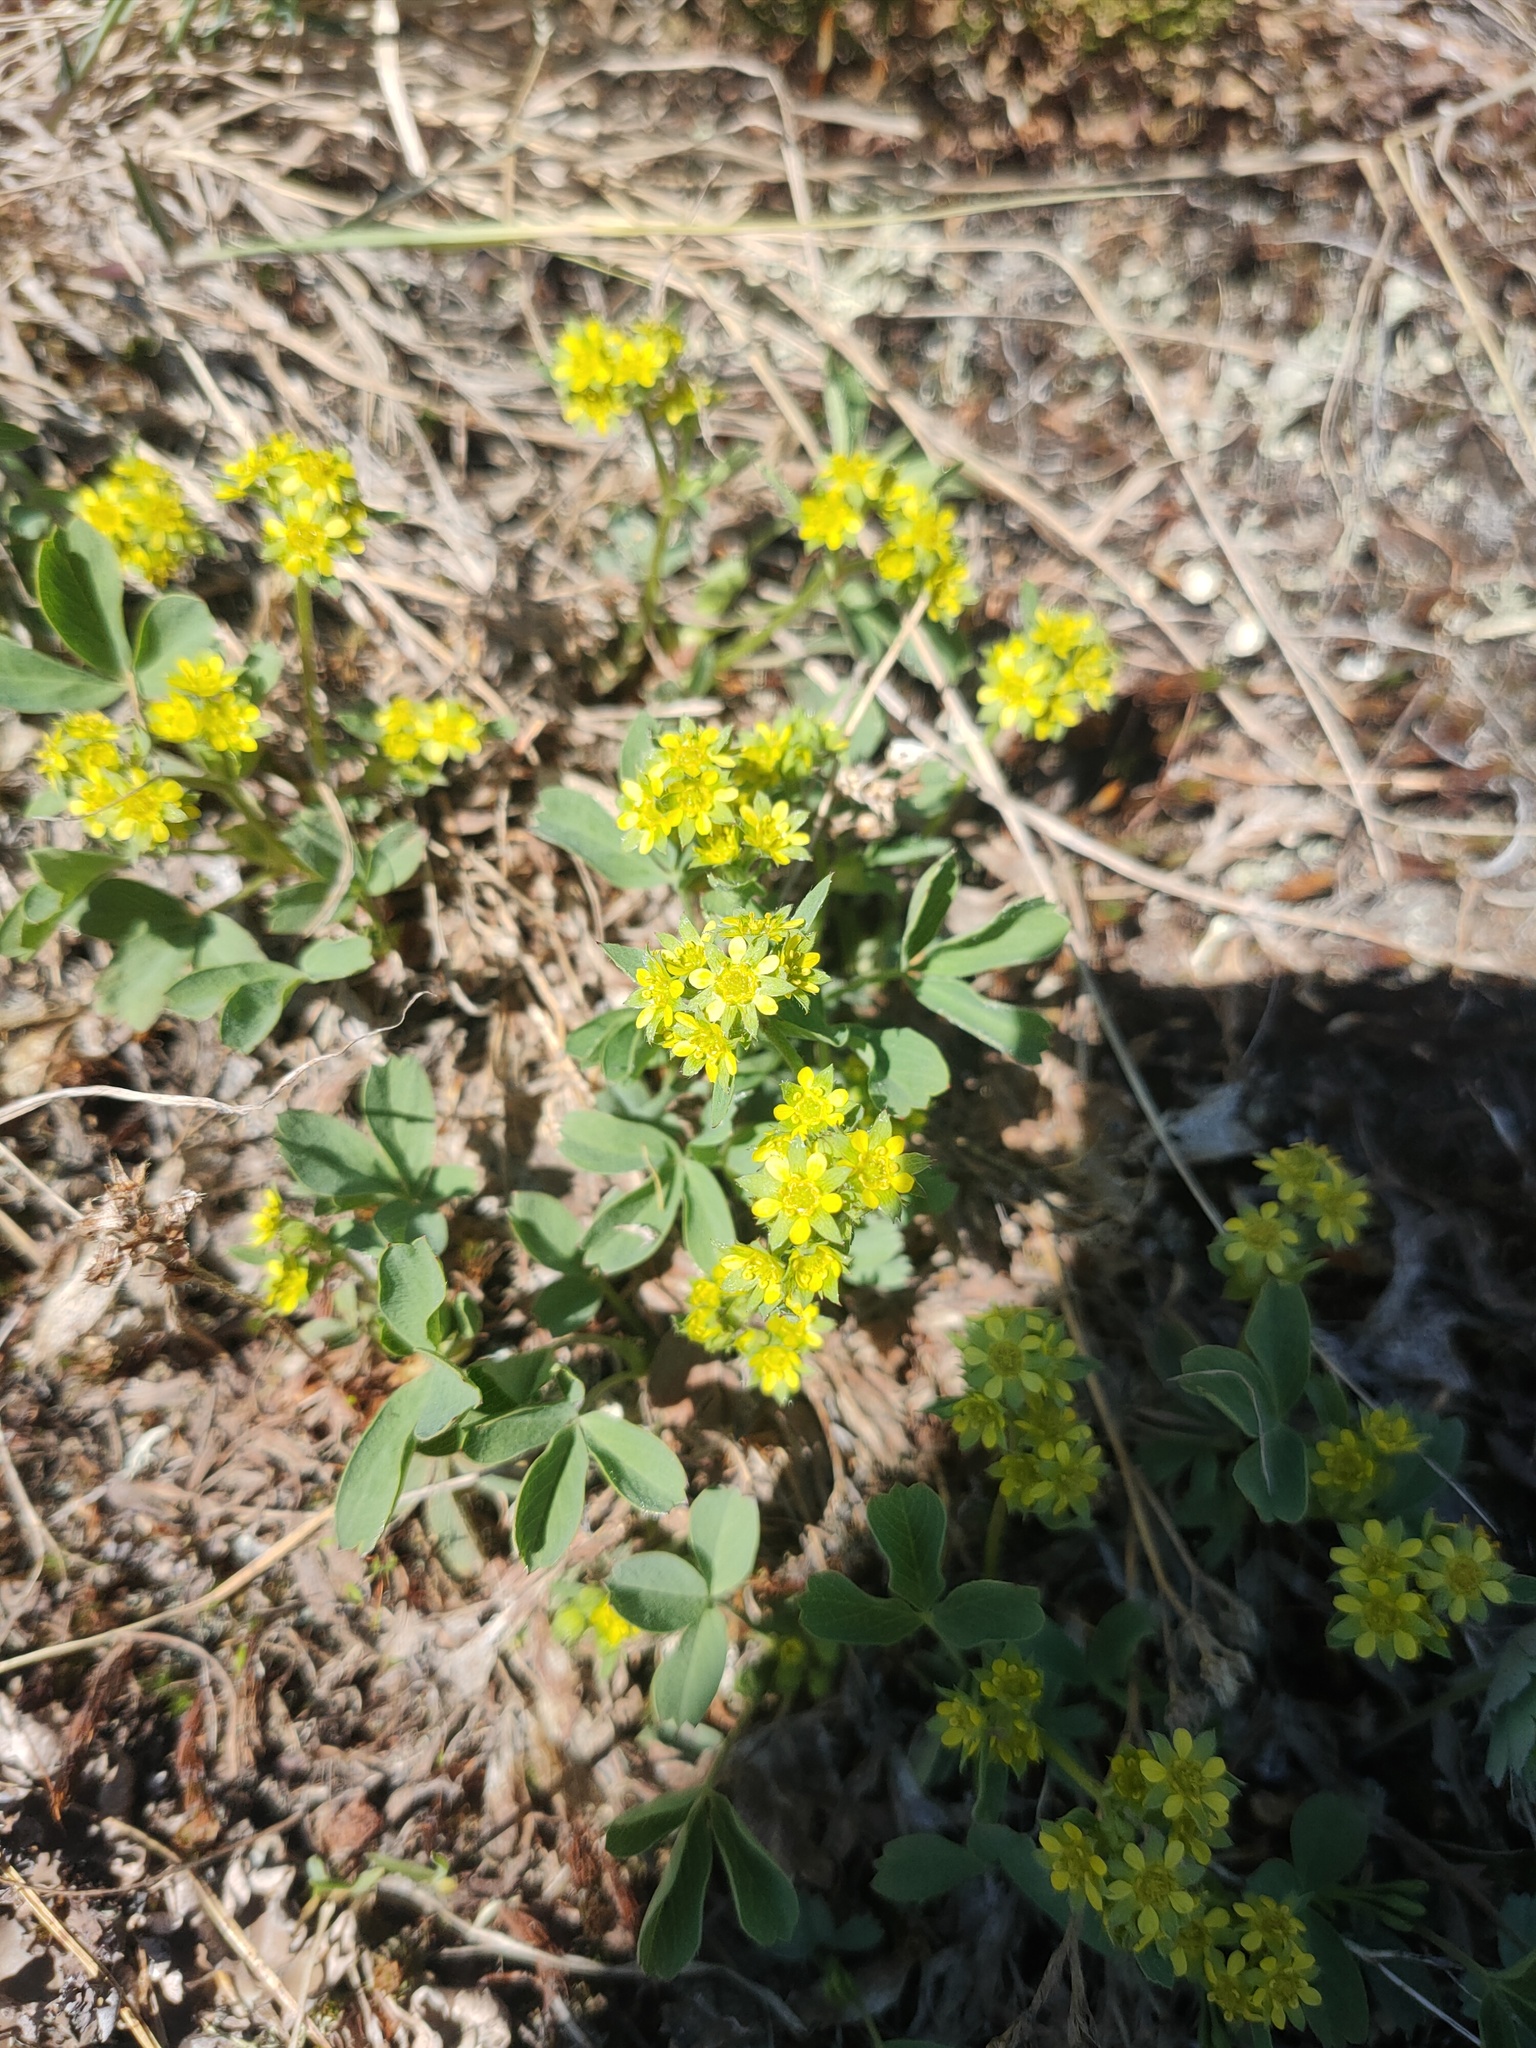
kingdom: Plantae
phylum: Tracheophyta
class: Magnoliopsida
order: Rosales
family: Rosaceae
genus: Sibbaldia
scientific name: Sibbaldia procumbens
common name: Creeping sibbaldia
